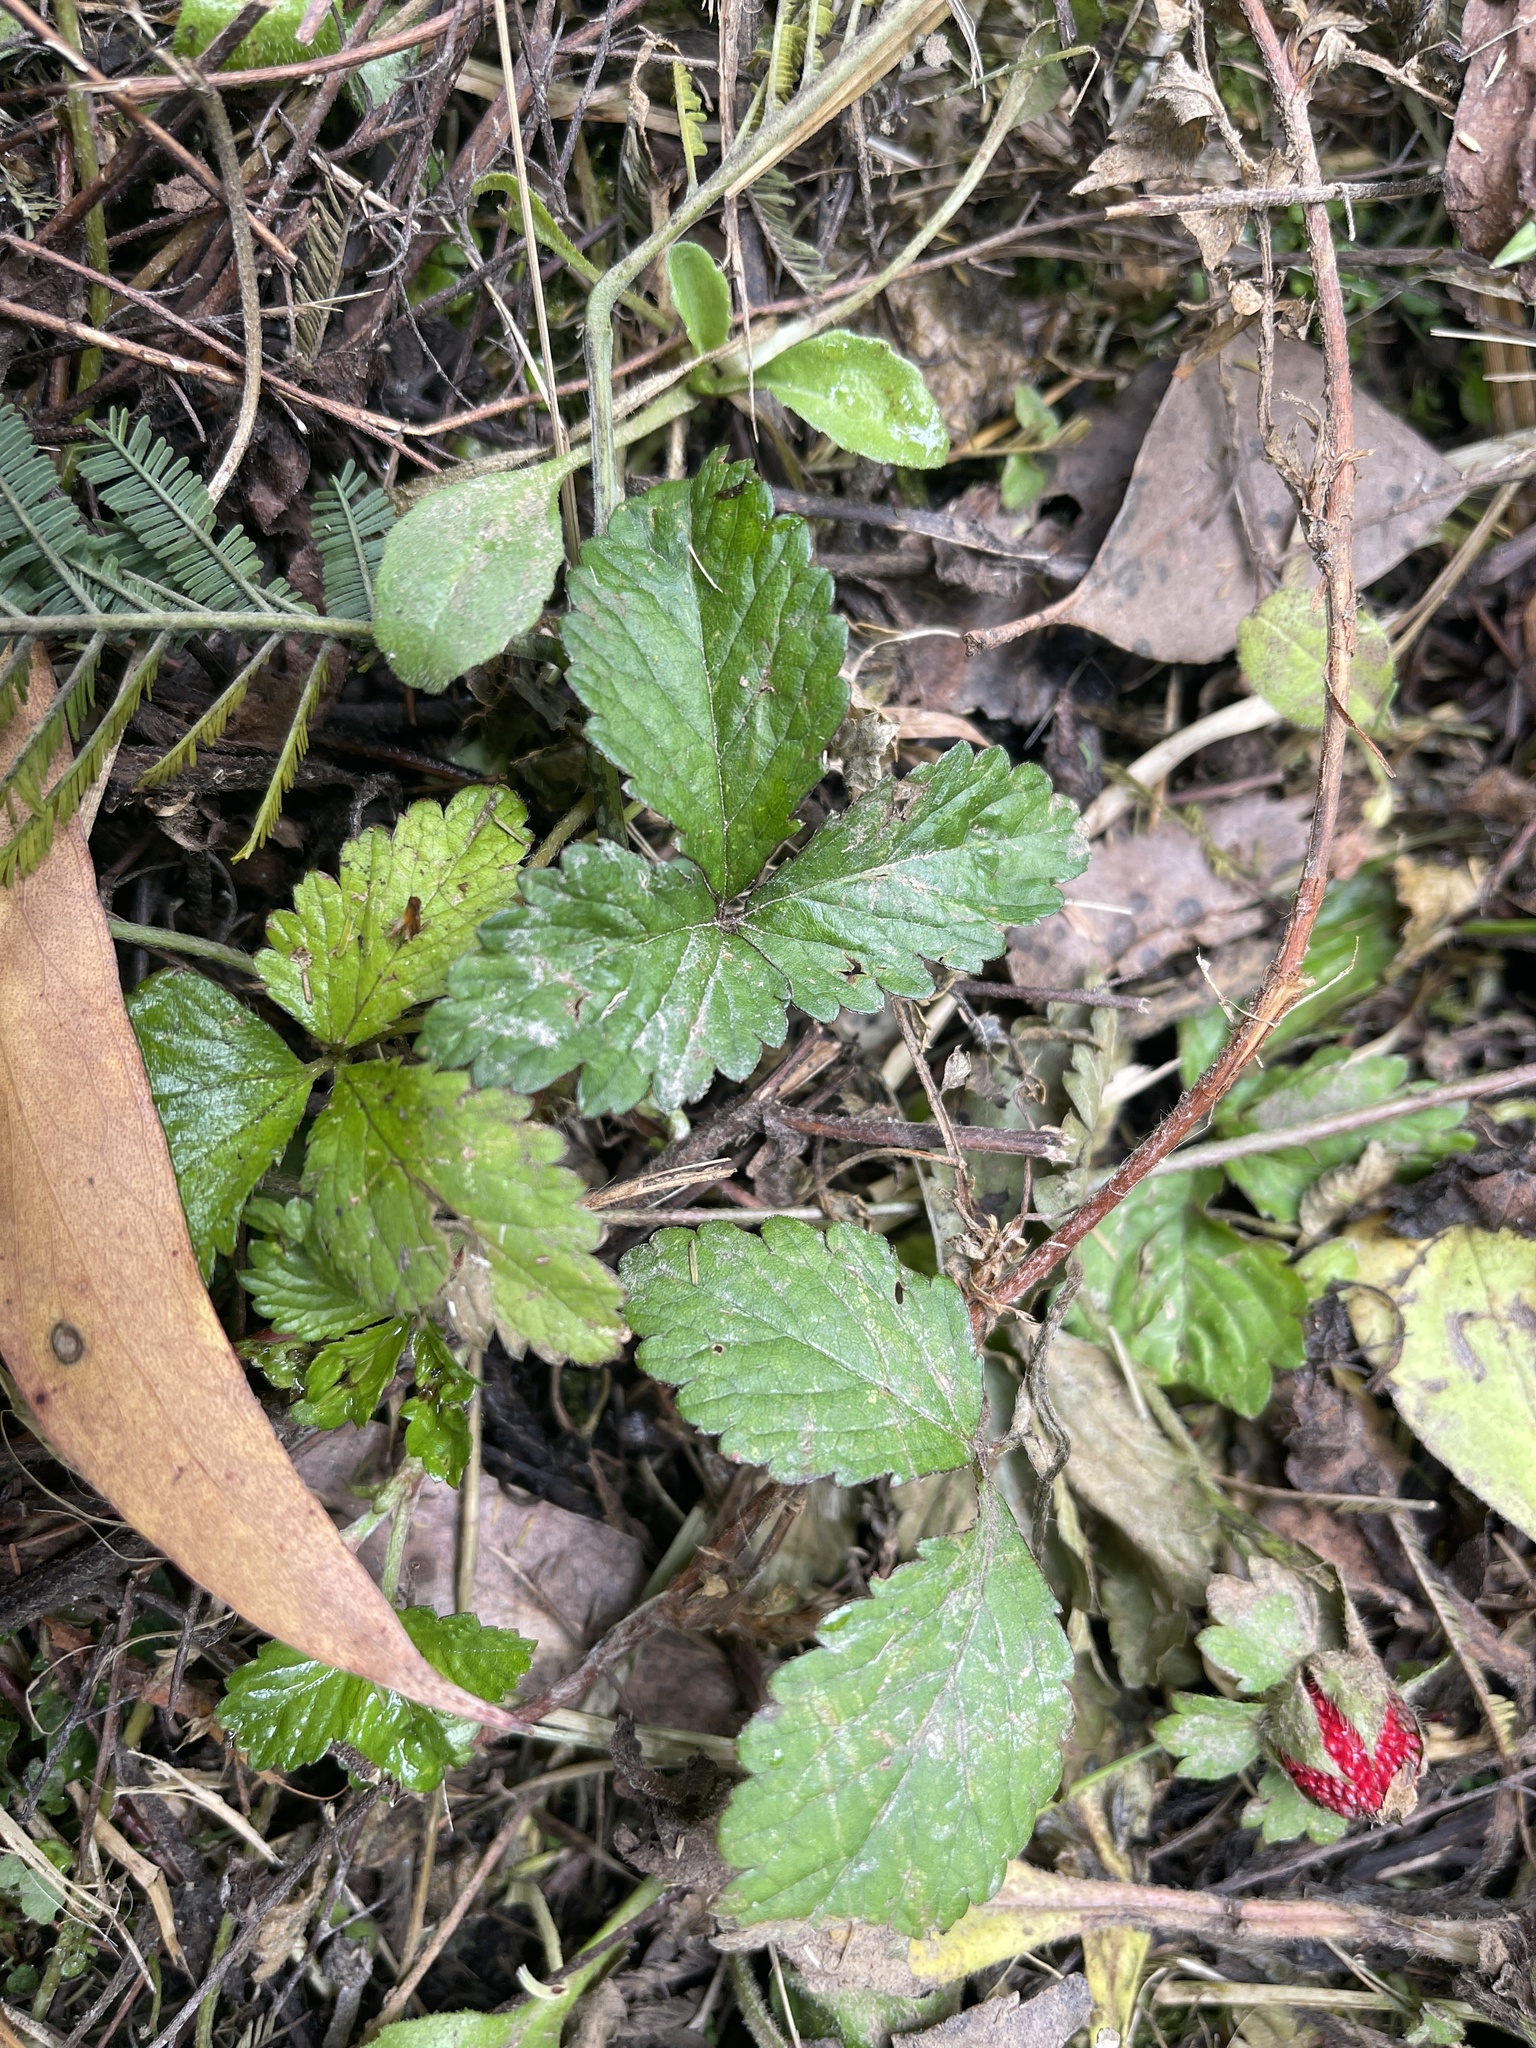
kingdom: Plantae
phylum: Tracheophyta
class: Magnoliopsida
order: Rosales
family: Rosaceae
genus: Potentilla
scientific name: Potentilla indica
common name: Yellow-flowered strawberry
